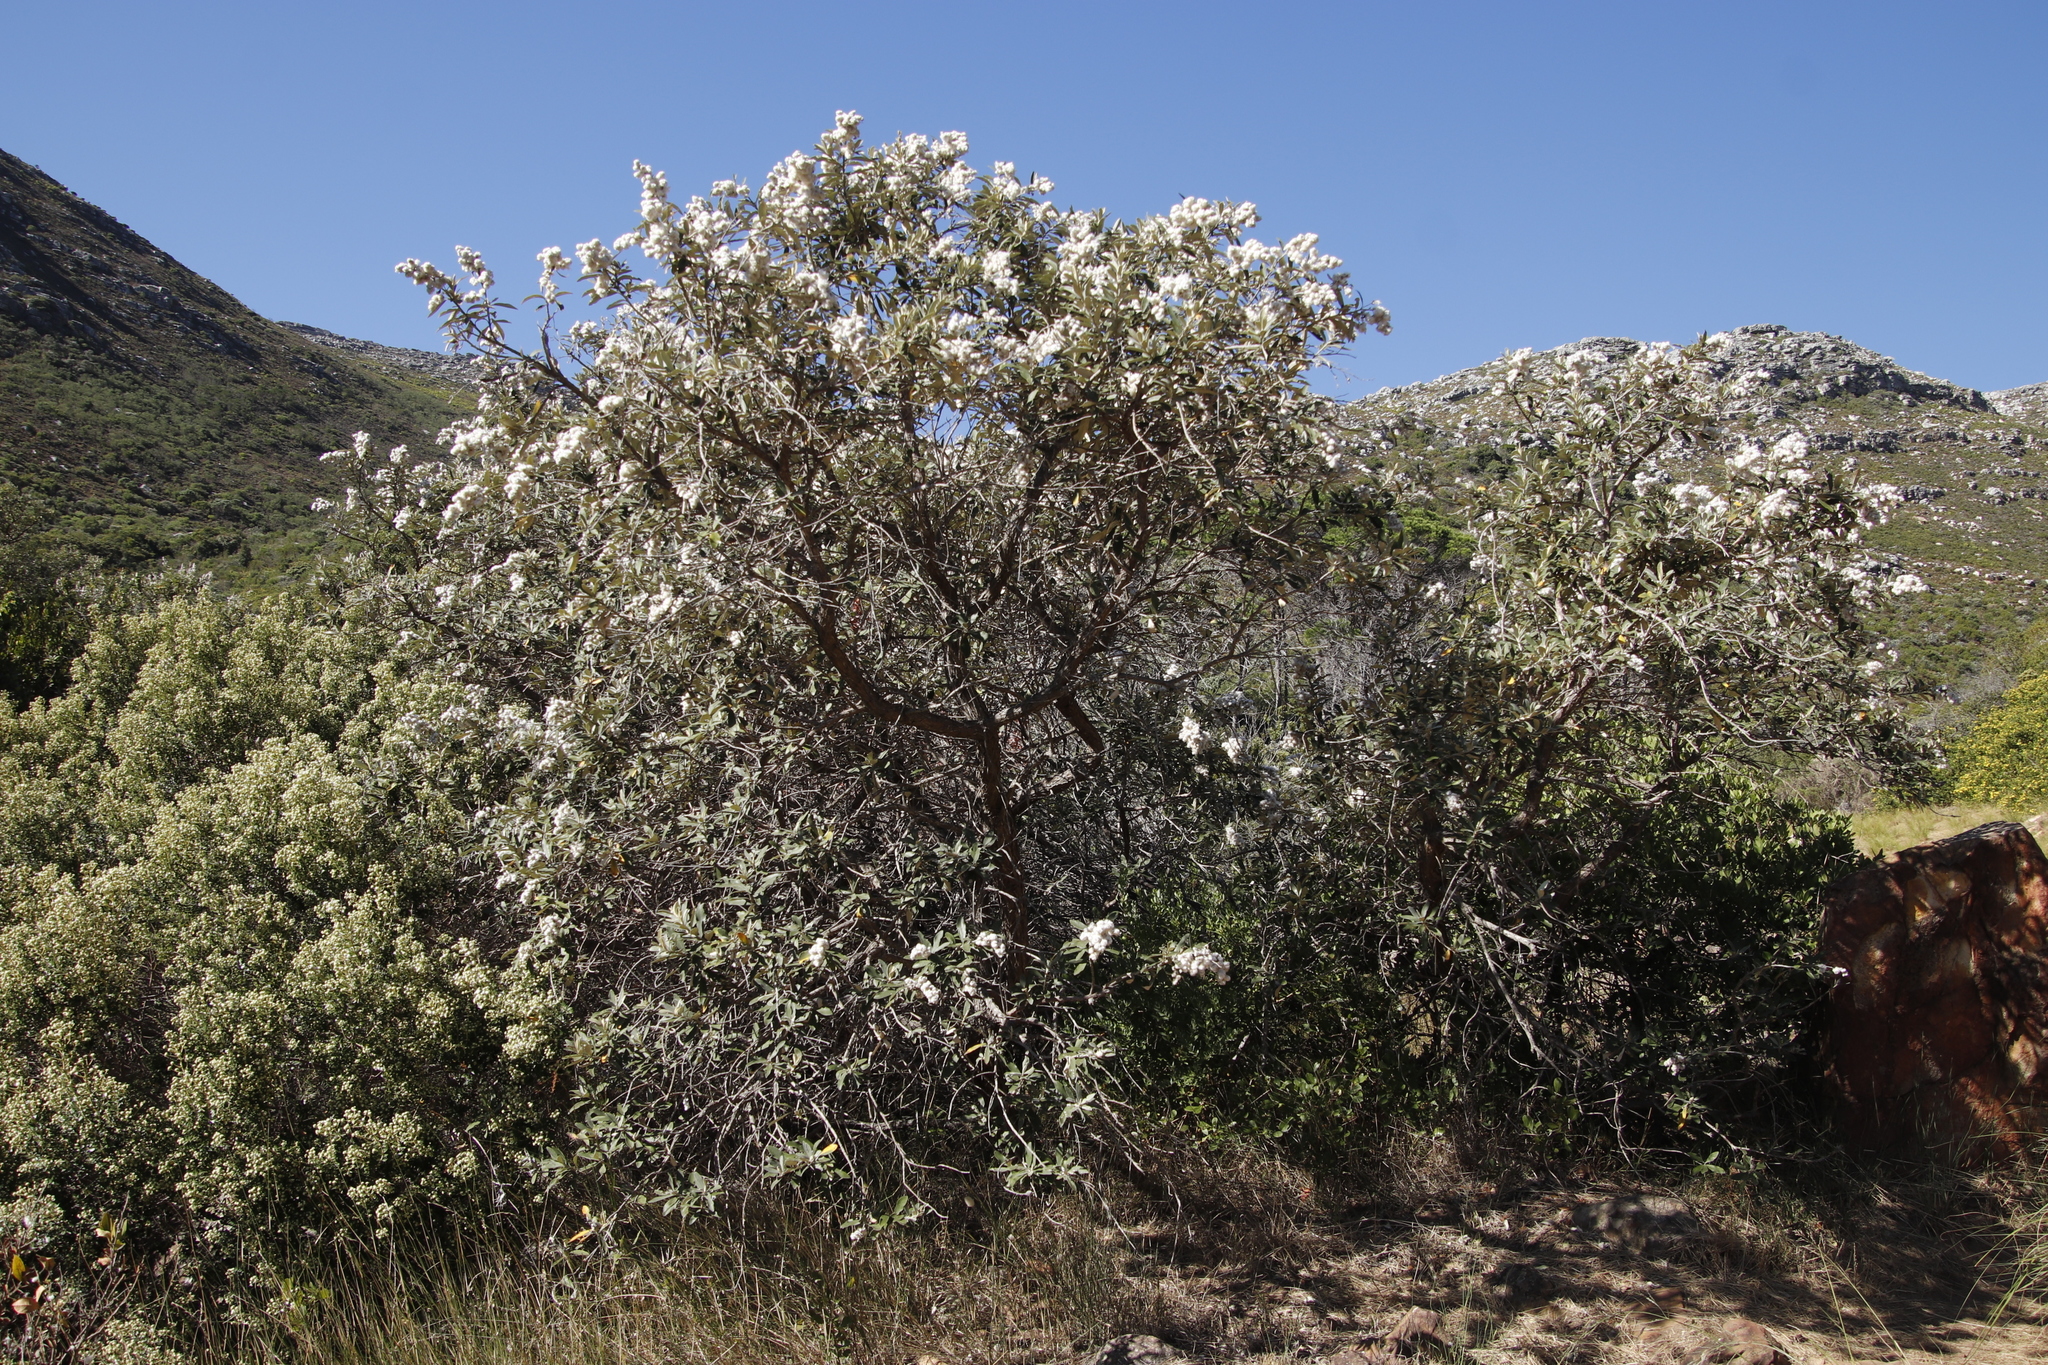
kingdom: Plantae
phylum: Tracheophyta
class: Magnoliopsida
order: Asterales
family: Asteraceae
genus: Tarchonanthus
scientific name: Tarchonanthus littoralis
